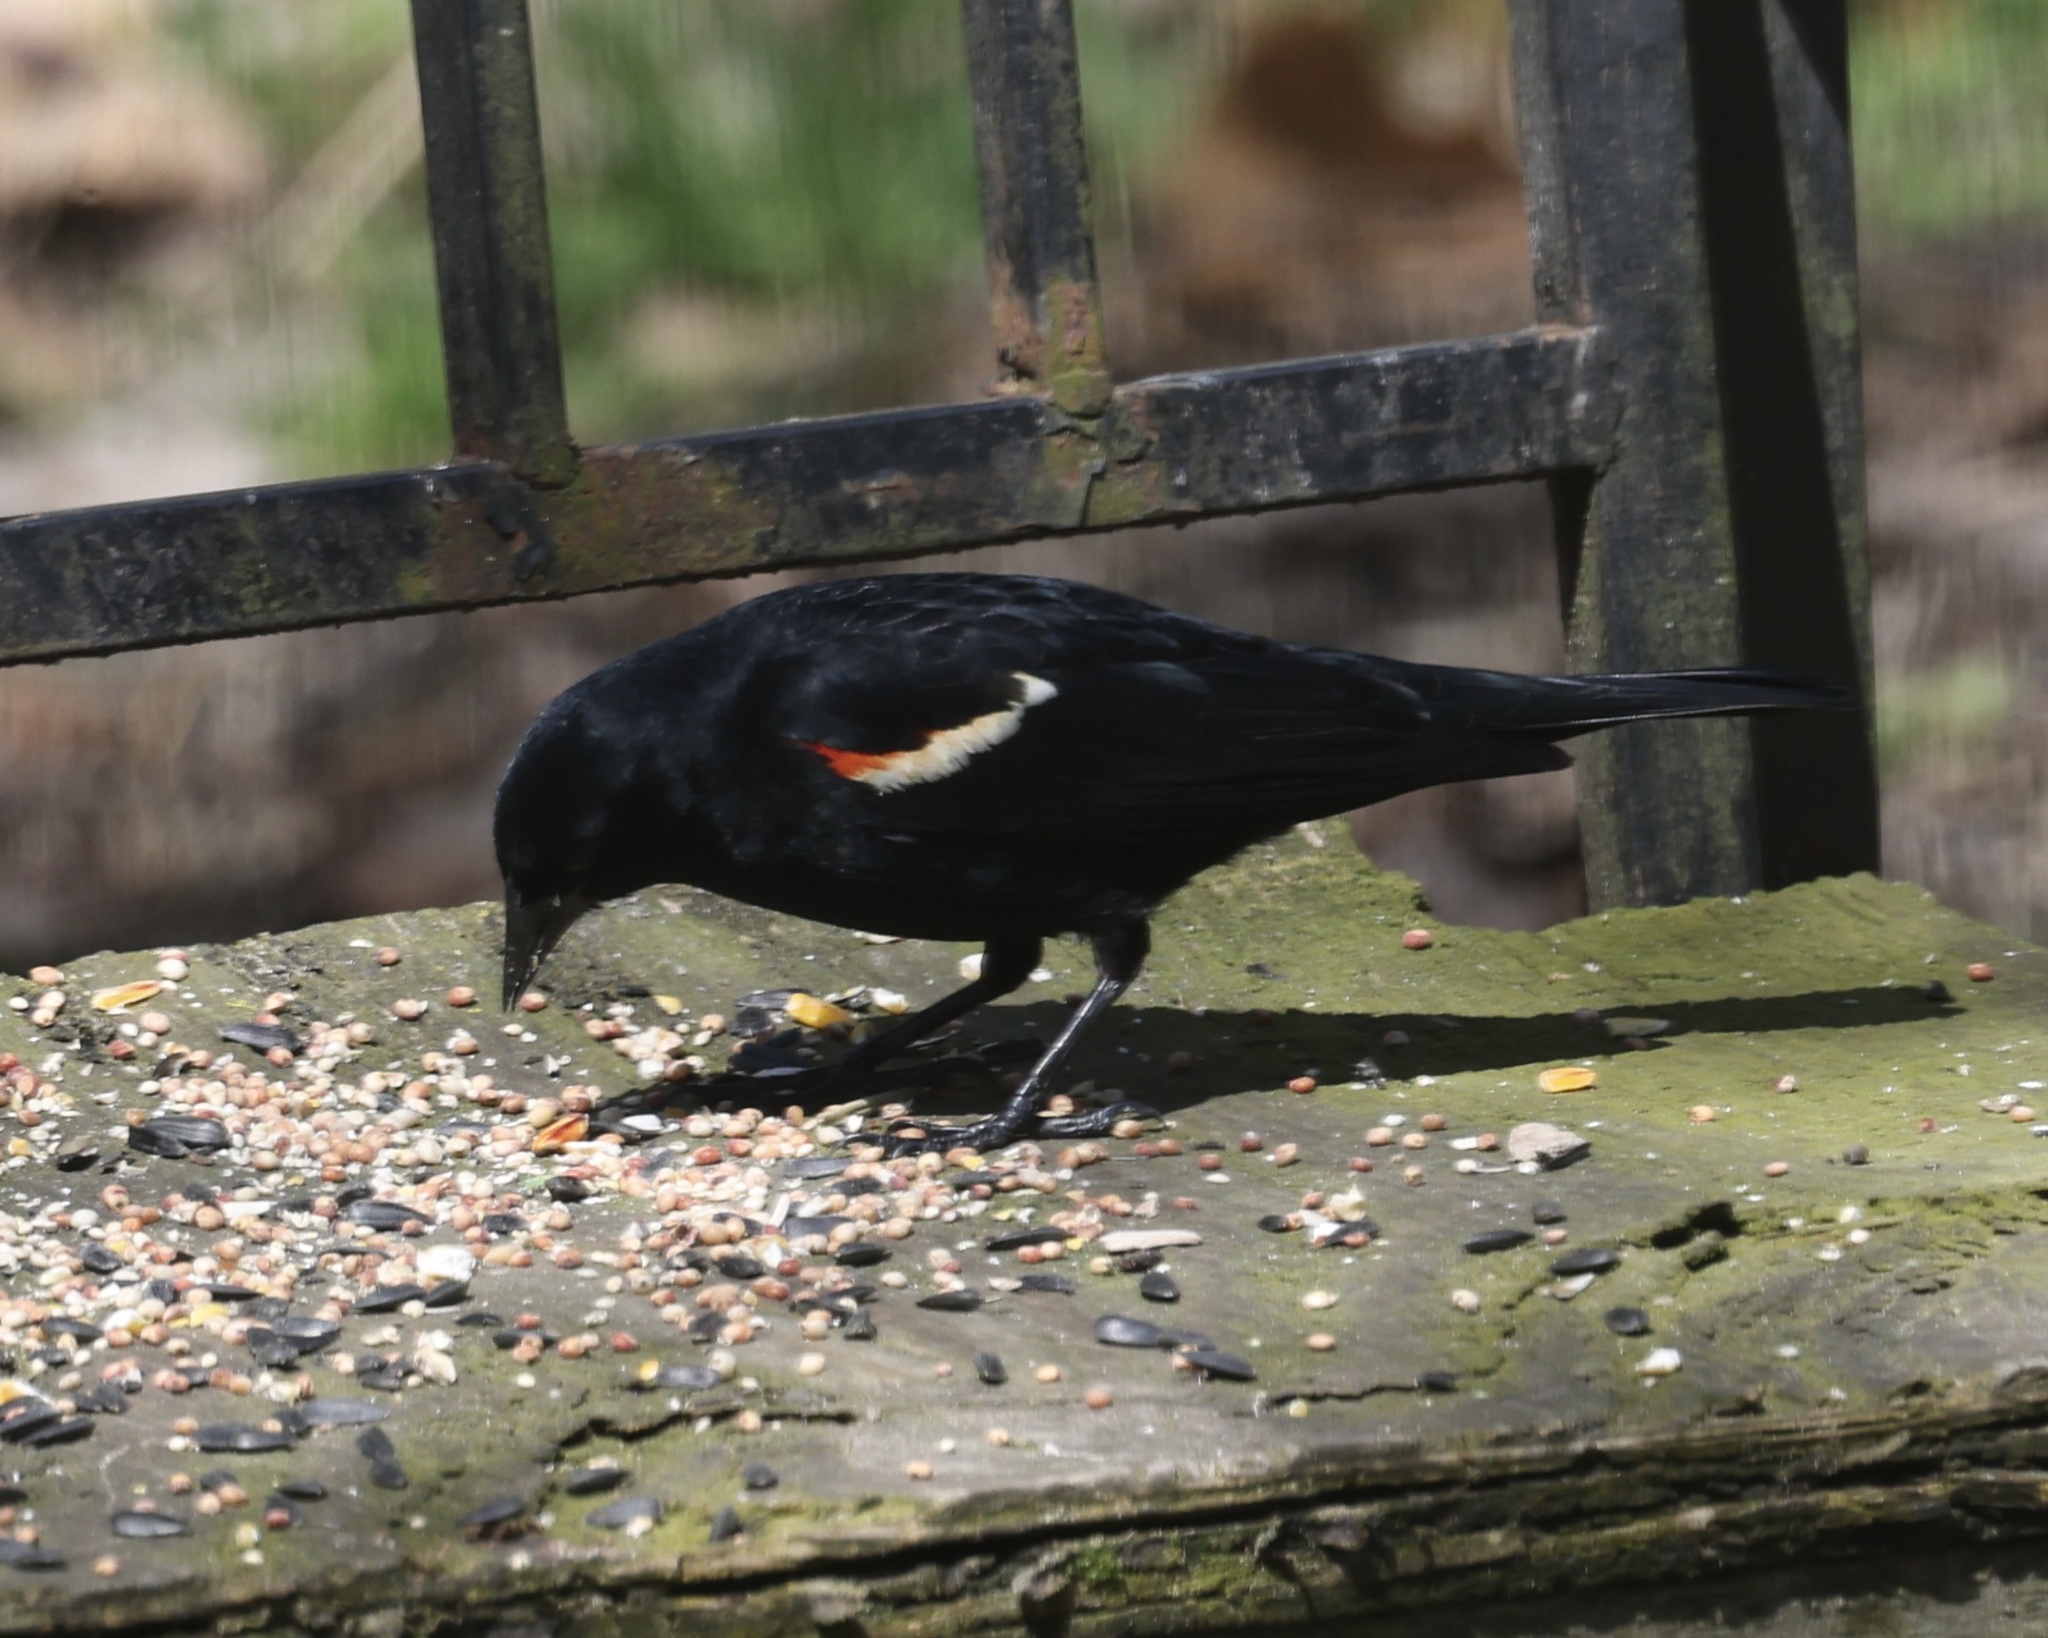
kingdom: Animalia
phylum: Chordata
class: Aves
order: Passeriformes
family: Icteridae
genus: Agelaius
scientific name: Agelaius phoeniceus
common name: Red-winged blackbird
